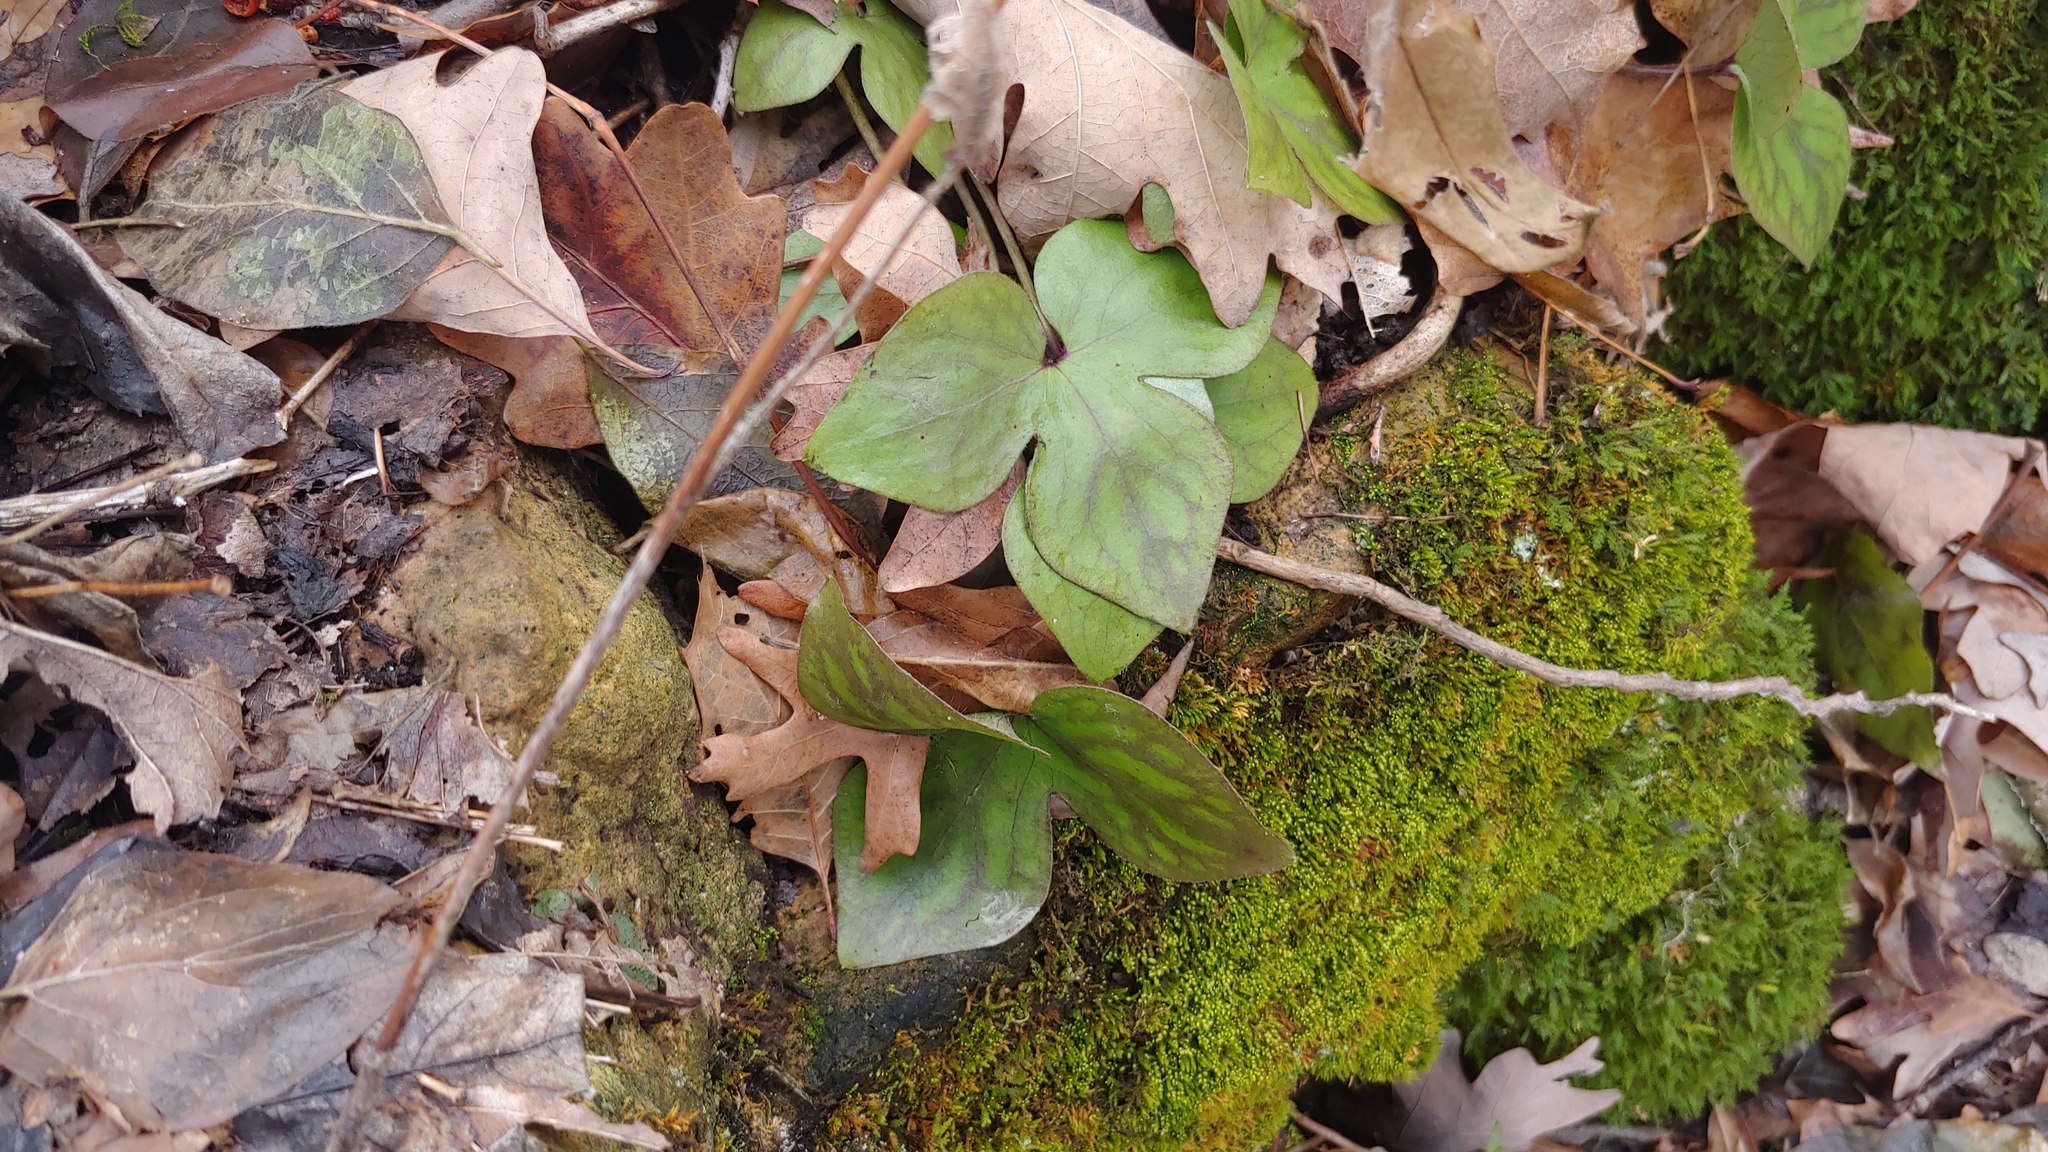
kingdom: Plantae
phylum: Tracheophyta
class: Magnoliopsida
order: Ranunculales
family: Ranunculaceae
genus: Hepatica
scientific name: Hepatica acutiloba
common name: Sharp-lobed hepatica
